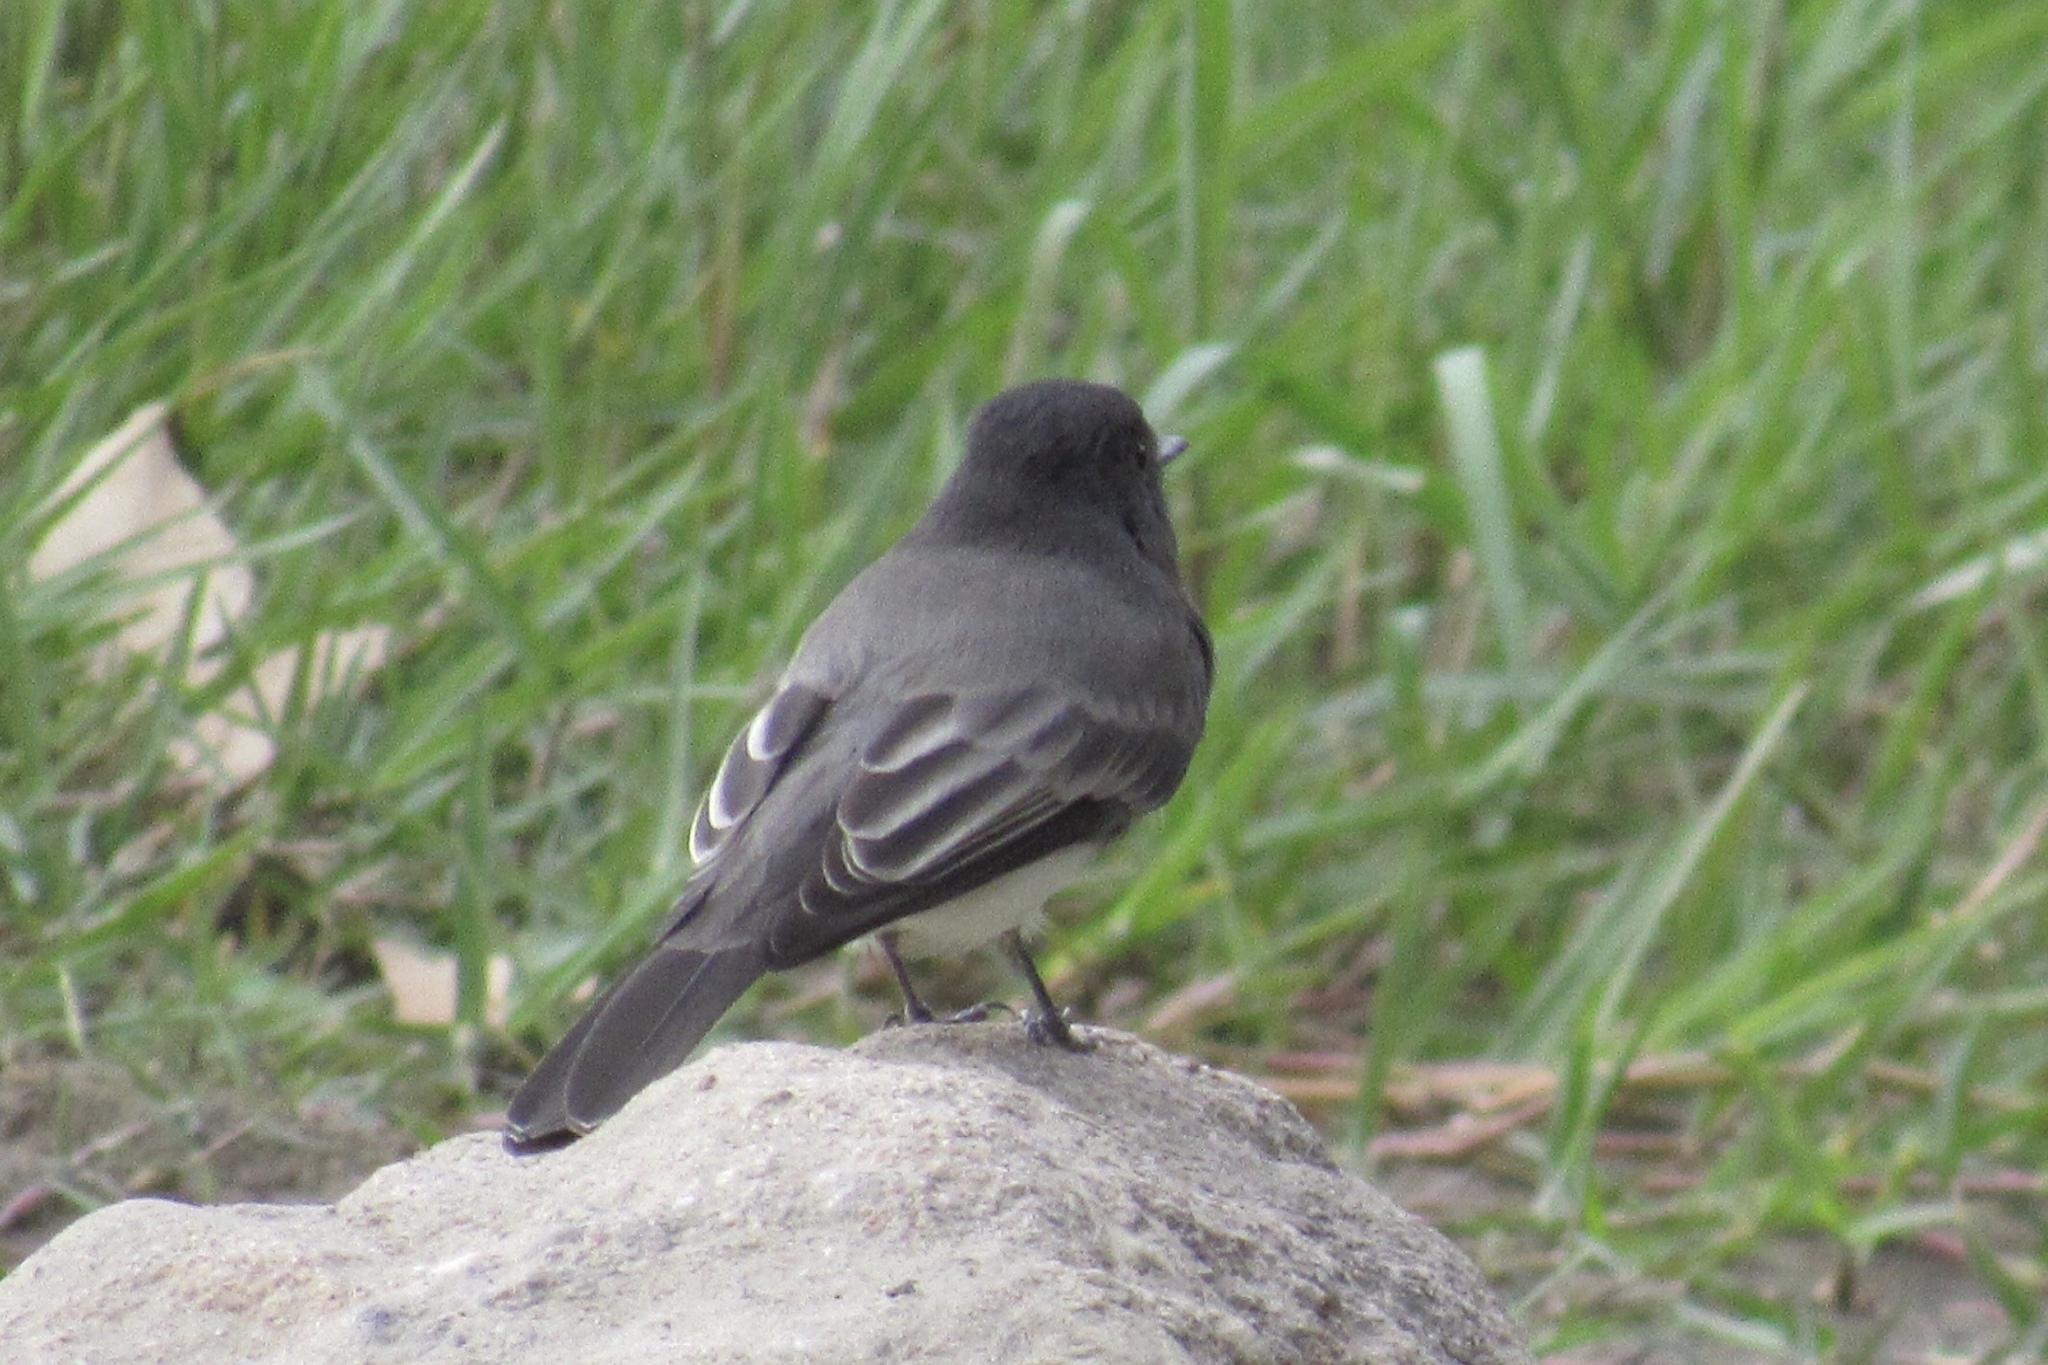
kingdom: Animalia
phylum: Chordata
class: Aves
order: Passeriformes
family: Tyrannidae
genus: Sayornis
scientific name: Sayornis nigricans
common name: Black phoebe
